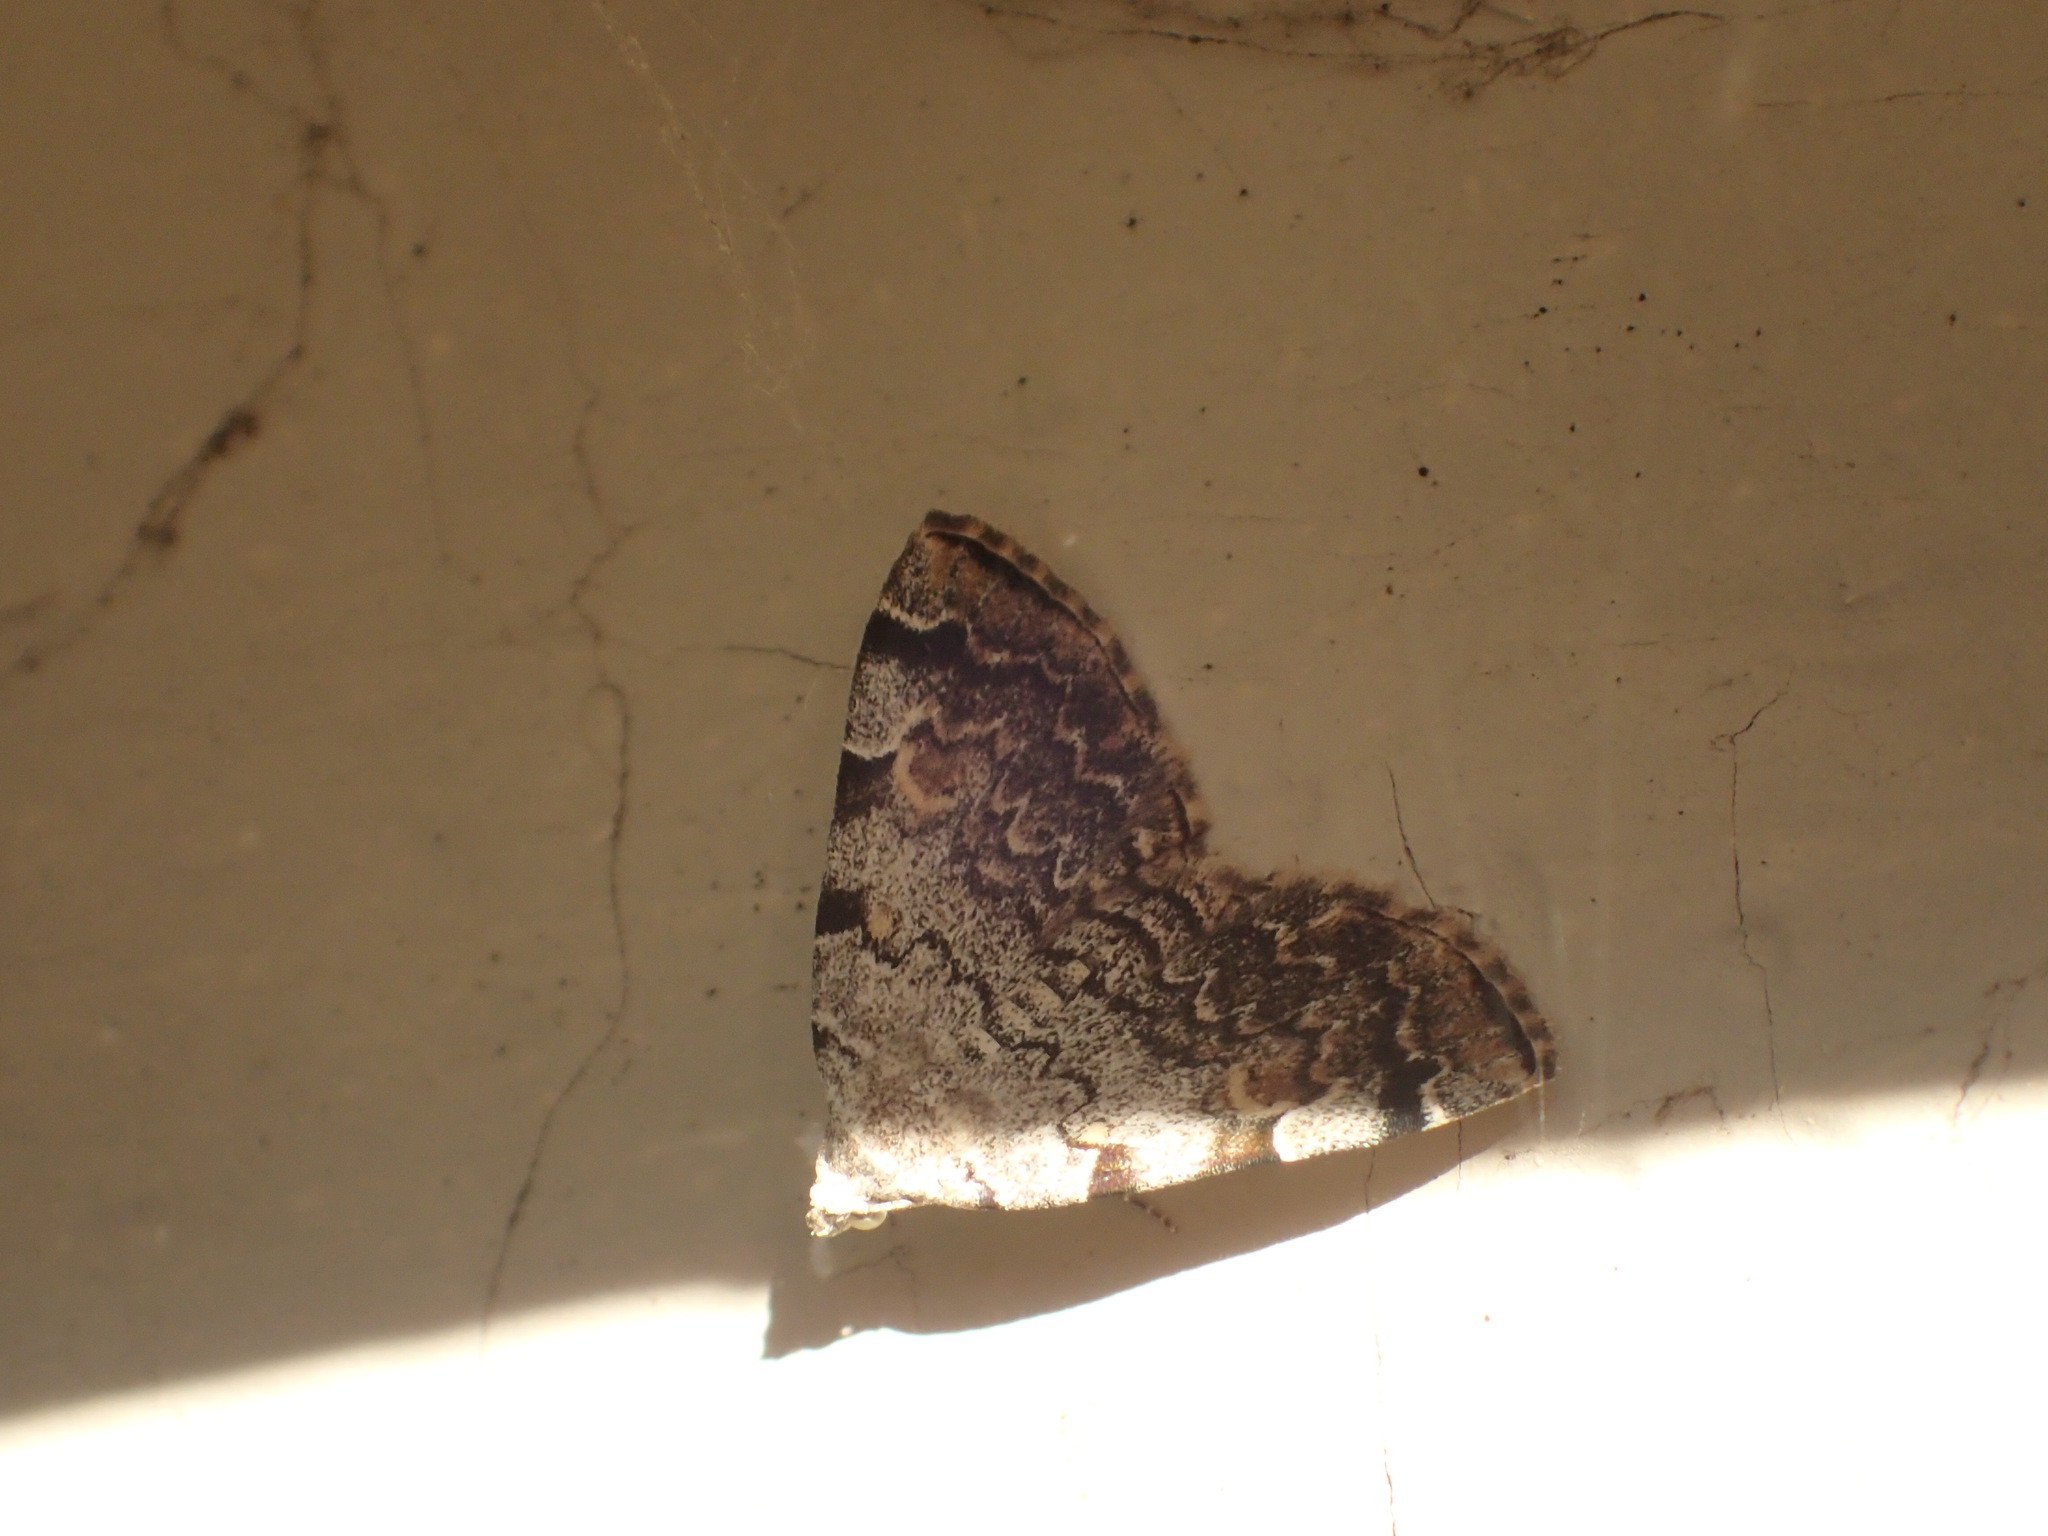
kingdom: Animalia
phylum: Arthropoda
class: Insecta
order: Lepidoptera
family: Erebidae
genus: Idia
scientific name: Idia americalis
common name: American idia moth
